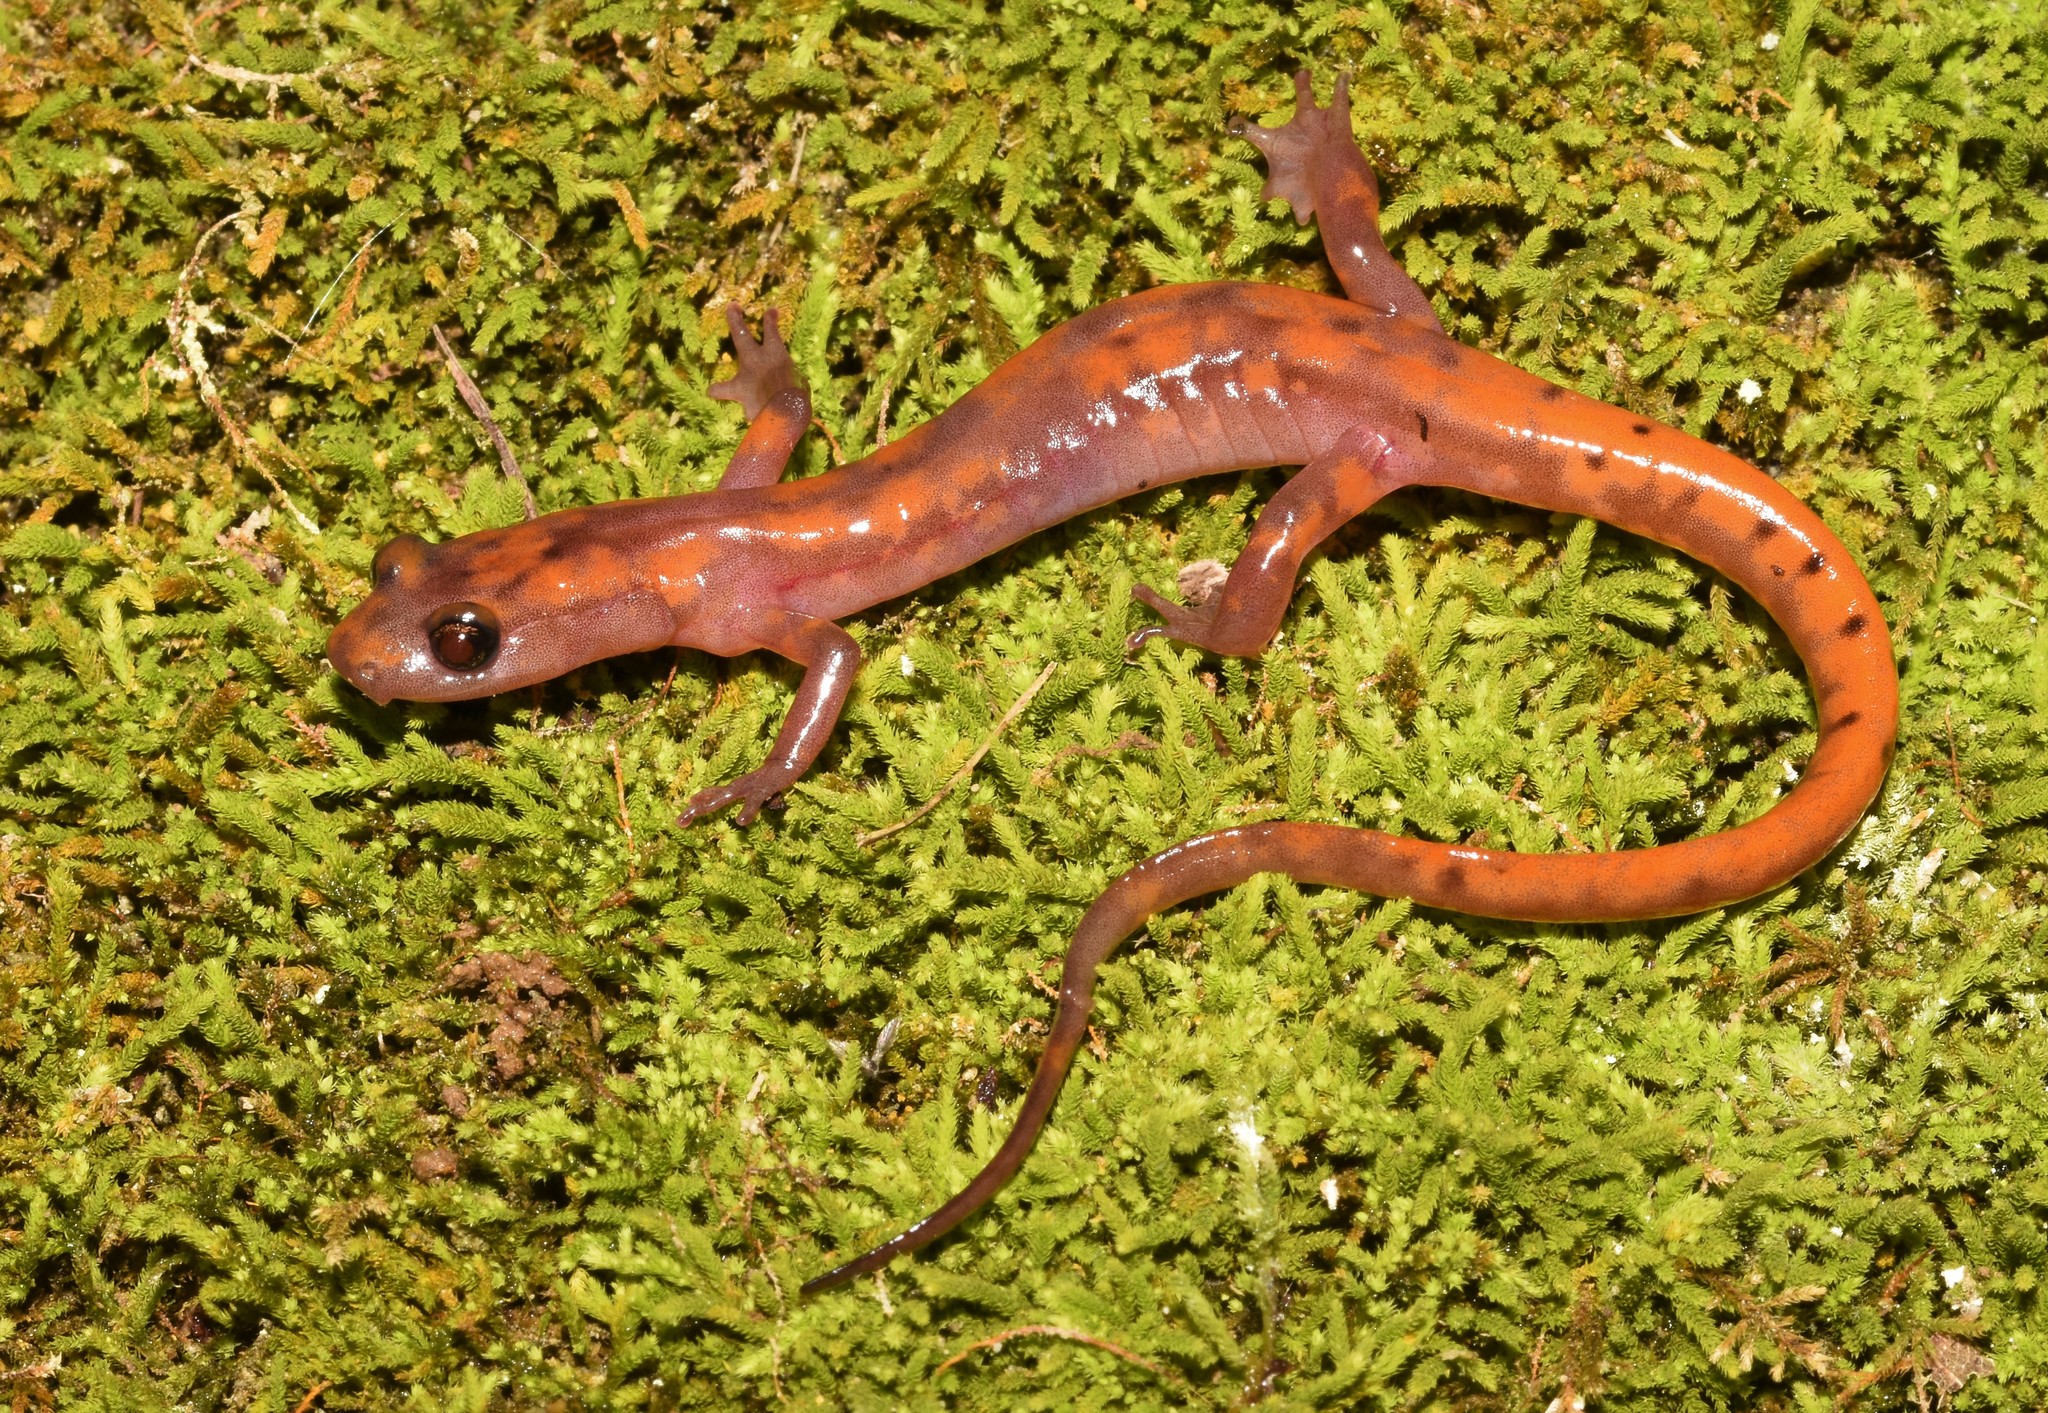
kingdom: Animalia
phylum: Chordata
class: Amphibia
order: Caudata
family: Plethodontidae
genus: Eurycea
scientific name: Eurycea lucifuga
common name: Cave salamander
